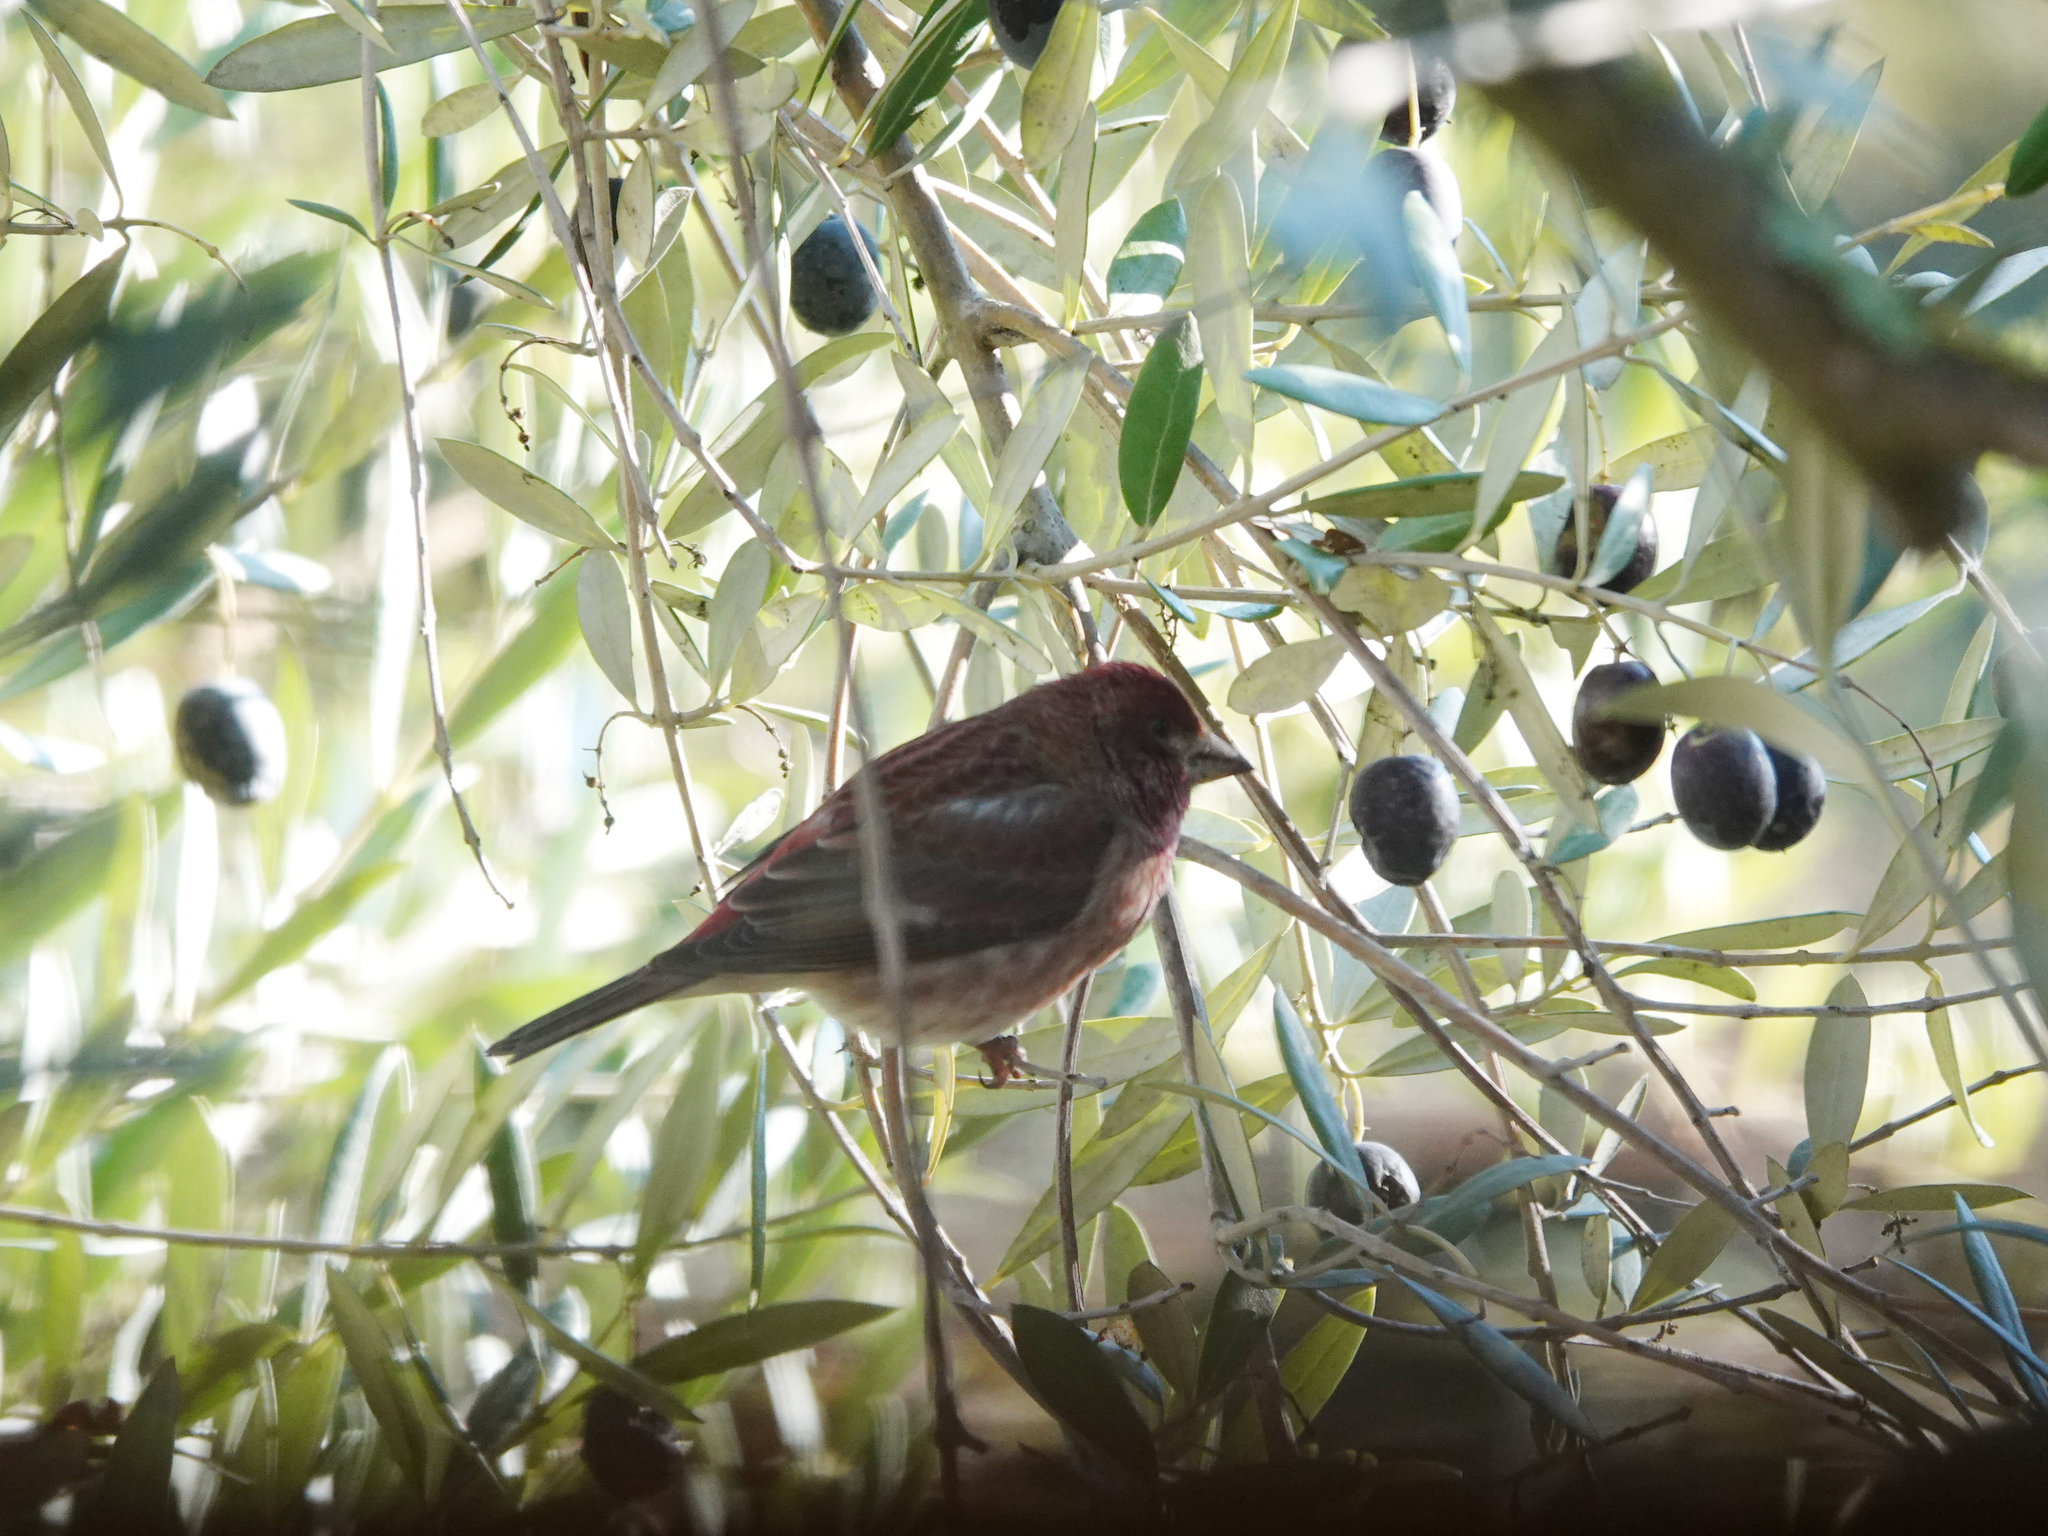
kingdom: Animalia
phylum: Chordata
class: Aves
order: Passeriformes
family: Fringillidae
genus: Haemorhous
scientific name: Haemorhous purpureus
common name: Purple finch
